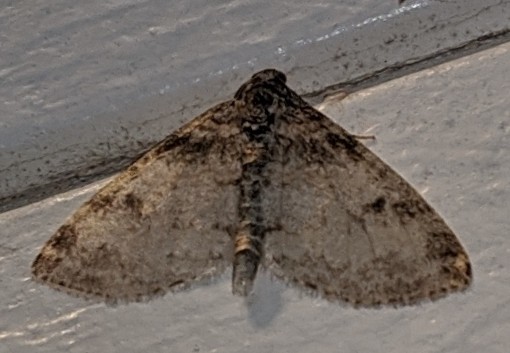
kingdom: Animalia
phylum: Arthropoda
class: Insecta
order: Lepidoptera
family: Geometridae
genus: Lobophora
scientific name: Lobophora nivigerata
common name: Powdered bigwing
